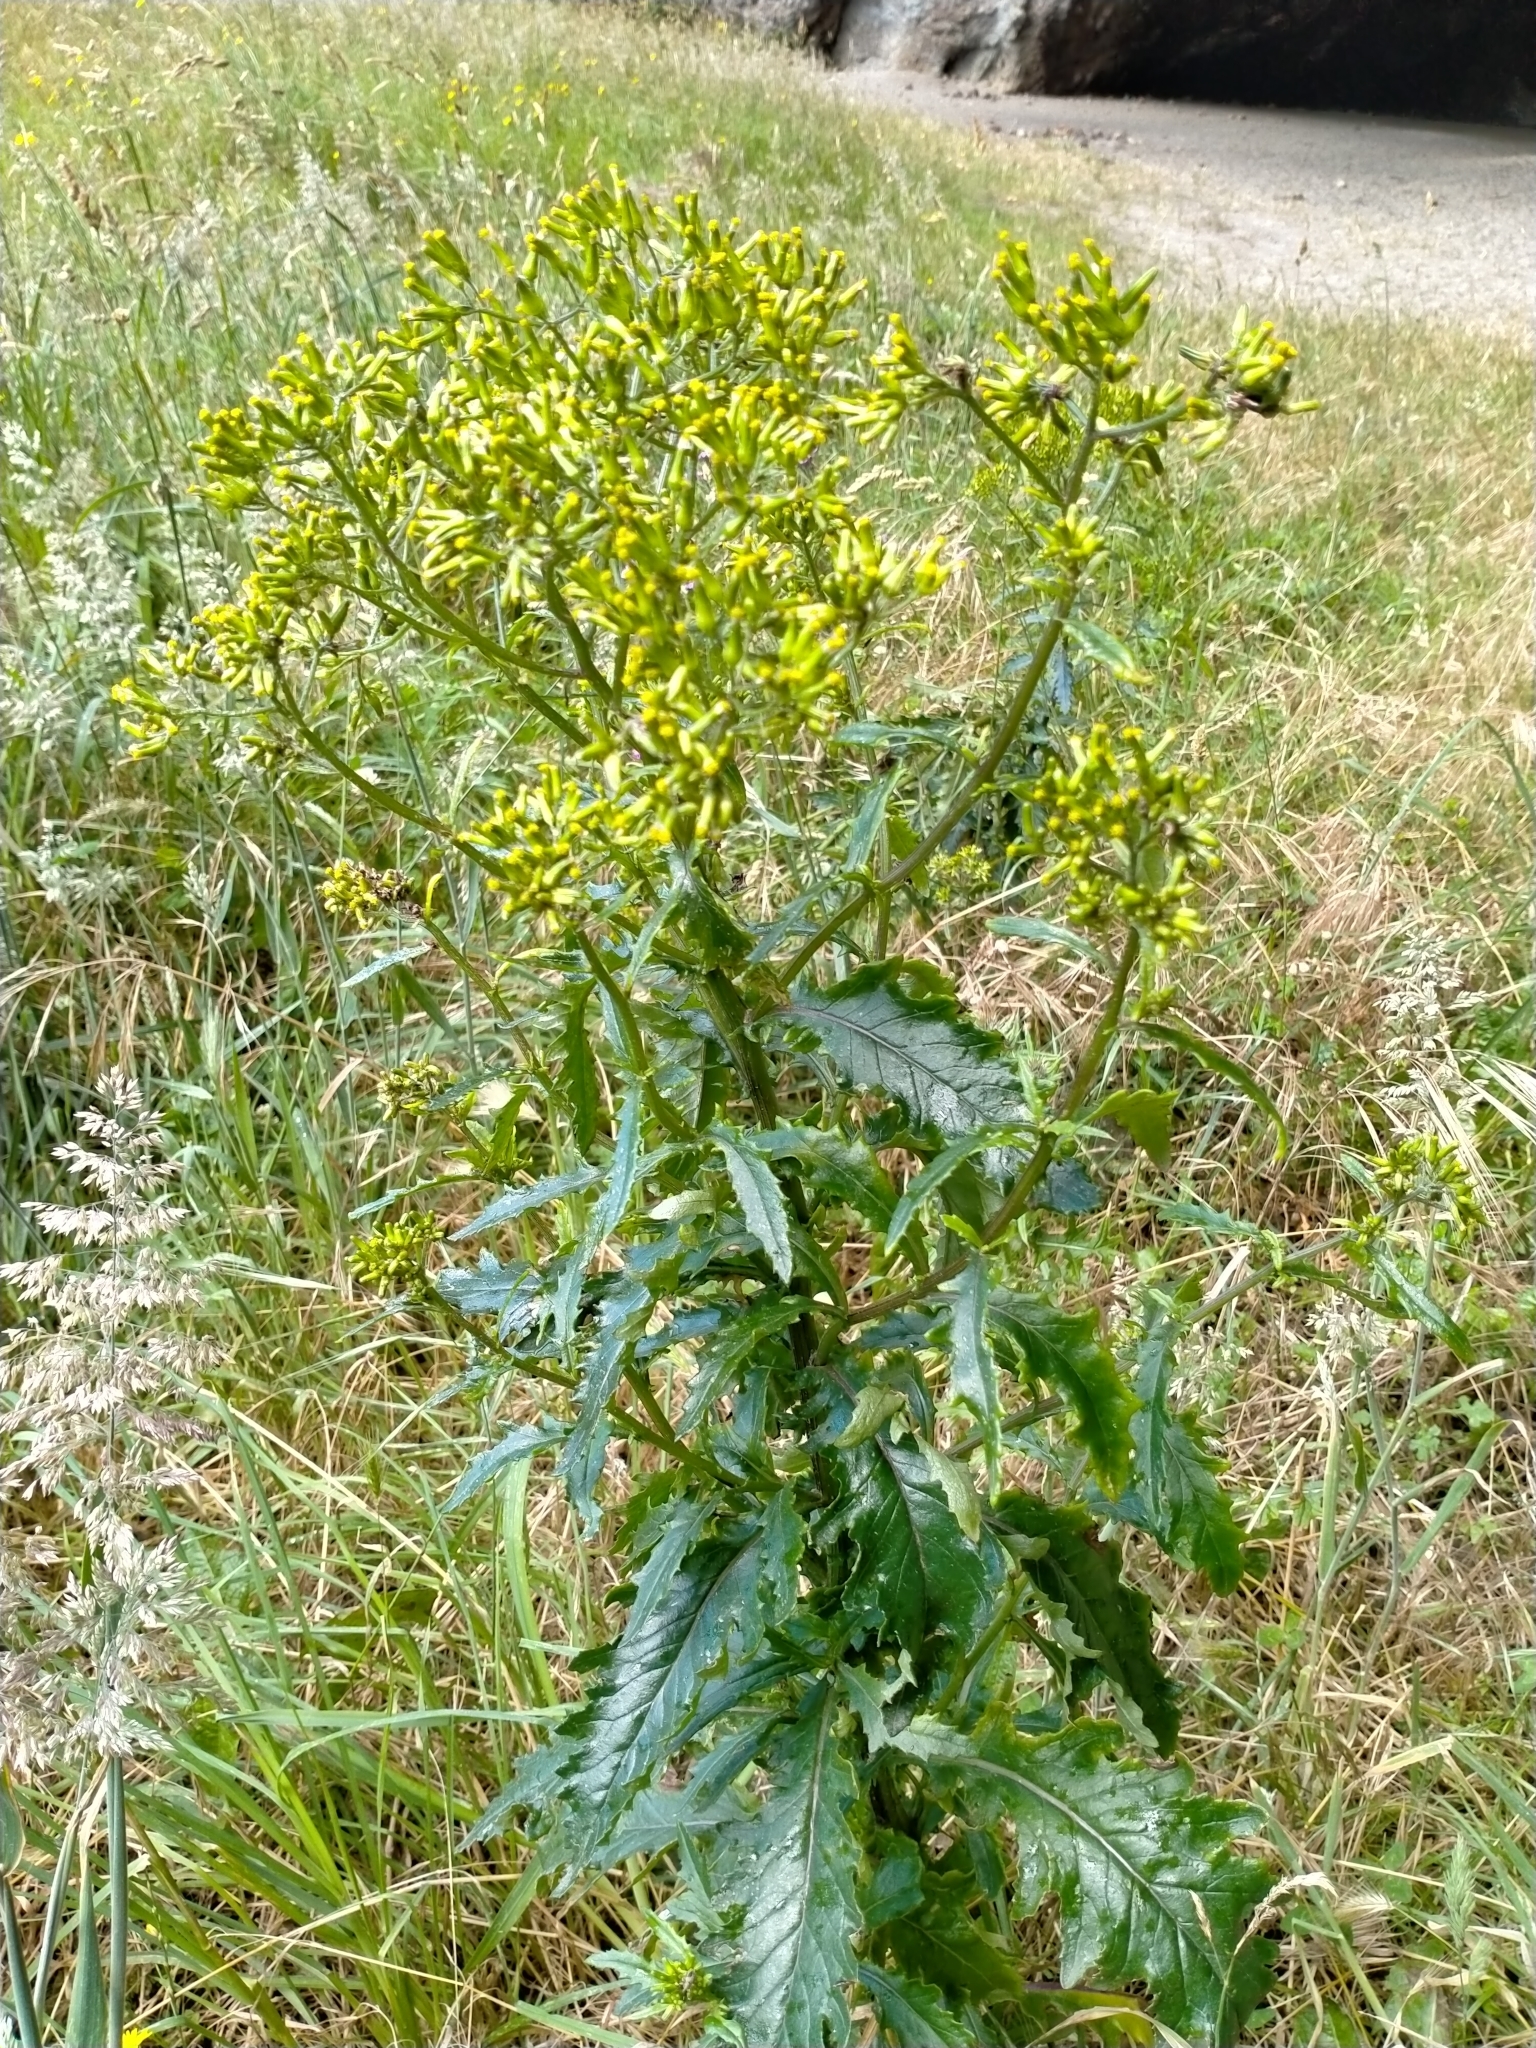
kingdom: Plantae
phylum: Tracheophyta
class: Magnoliopsida
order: Asterales
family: Asteraceae
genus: Senecio
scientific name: Senecio biserratus
